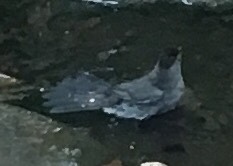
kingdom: Animalia
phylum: Chordata
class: Aves
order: Passeriformes
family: Mimidae
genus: Dumetella
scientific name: Dumetella carolinensis
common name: Gray catbird
